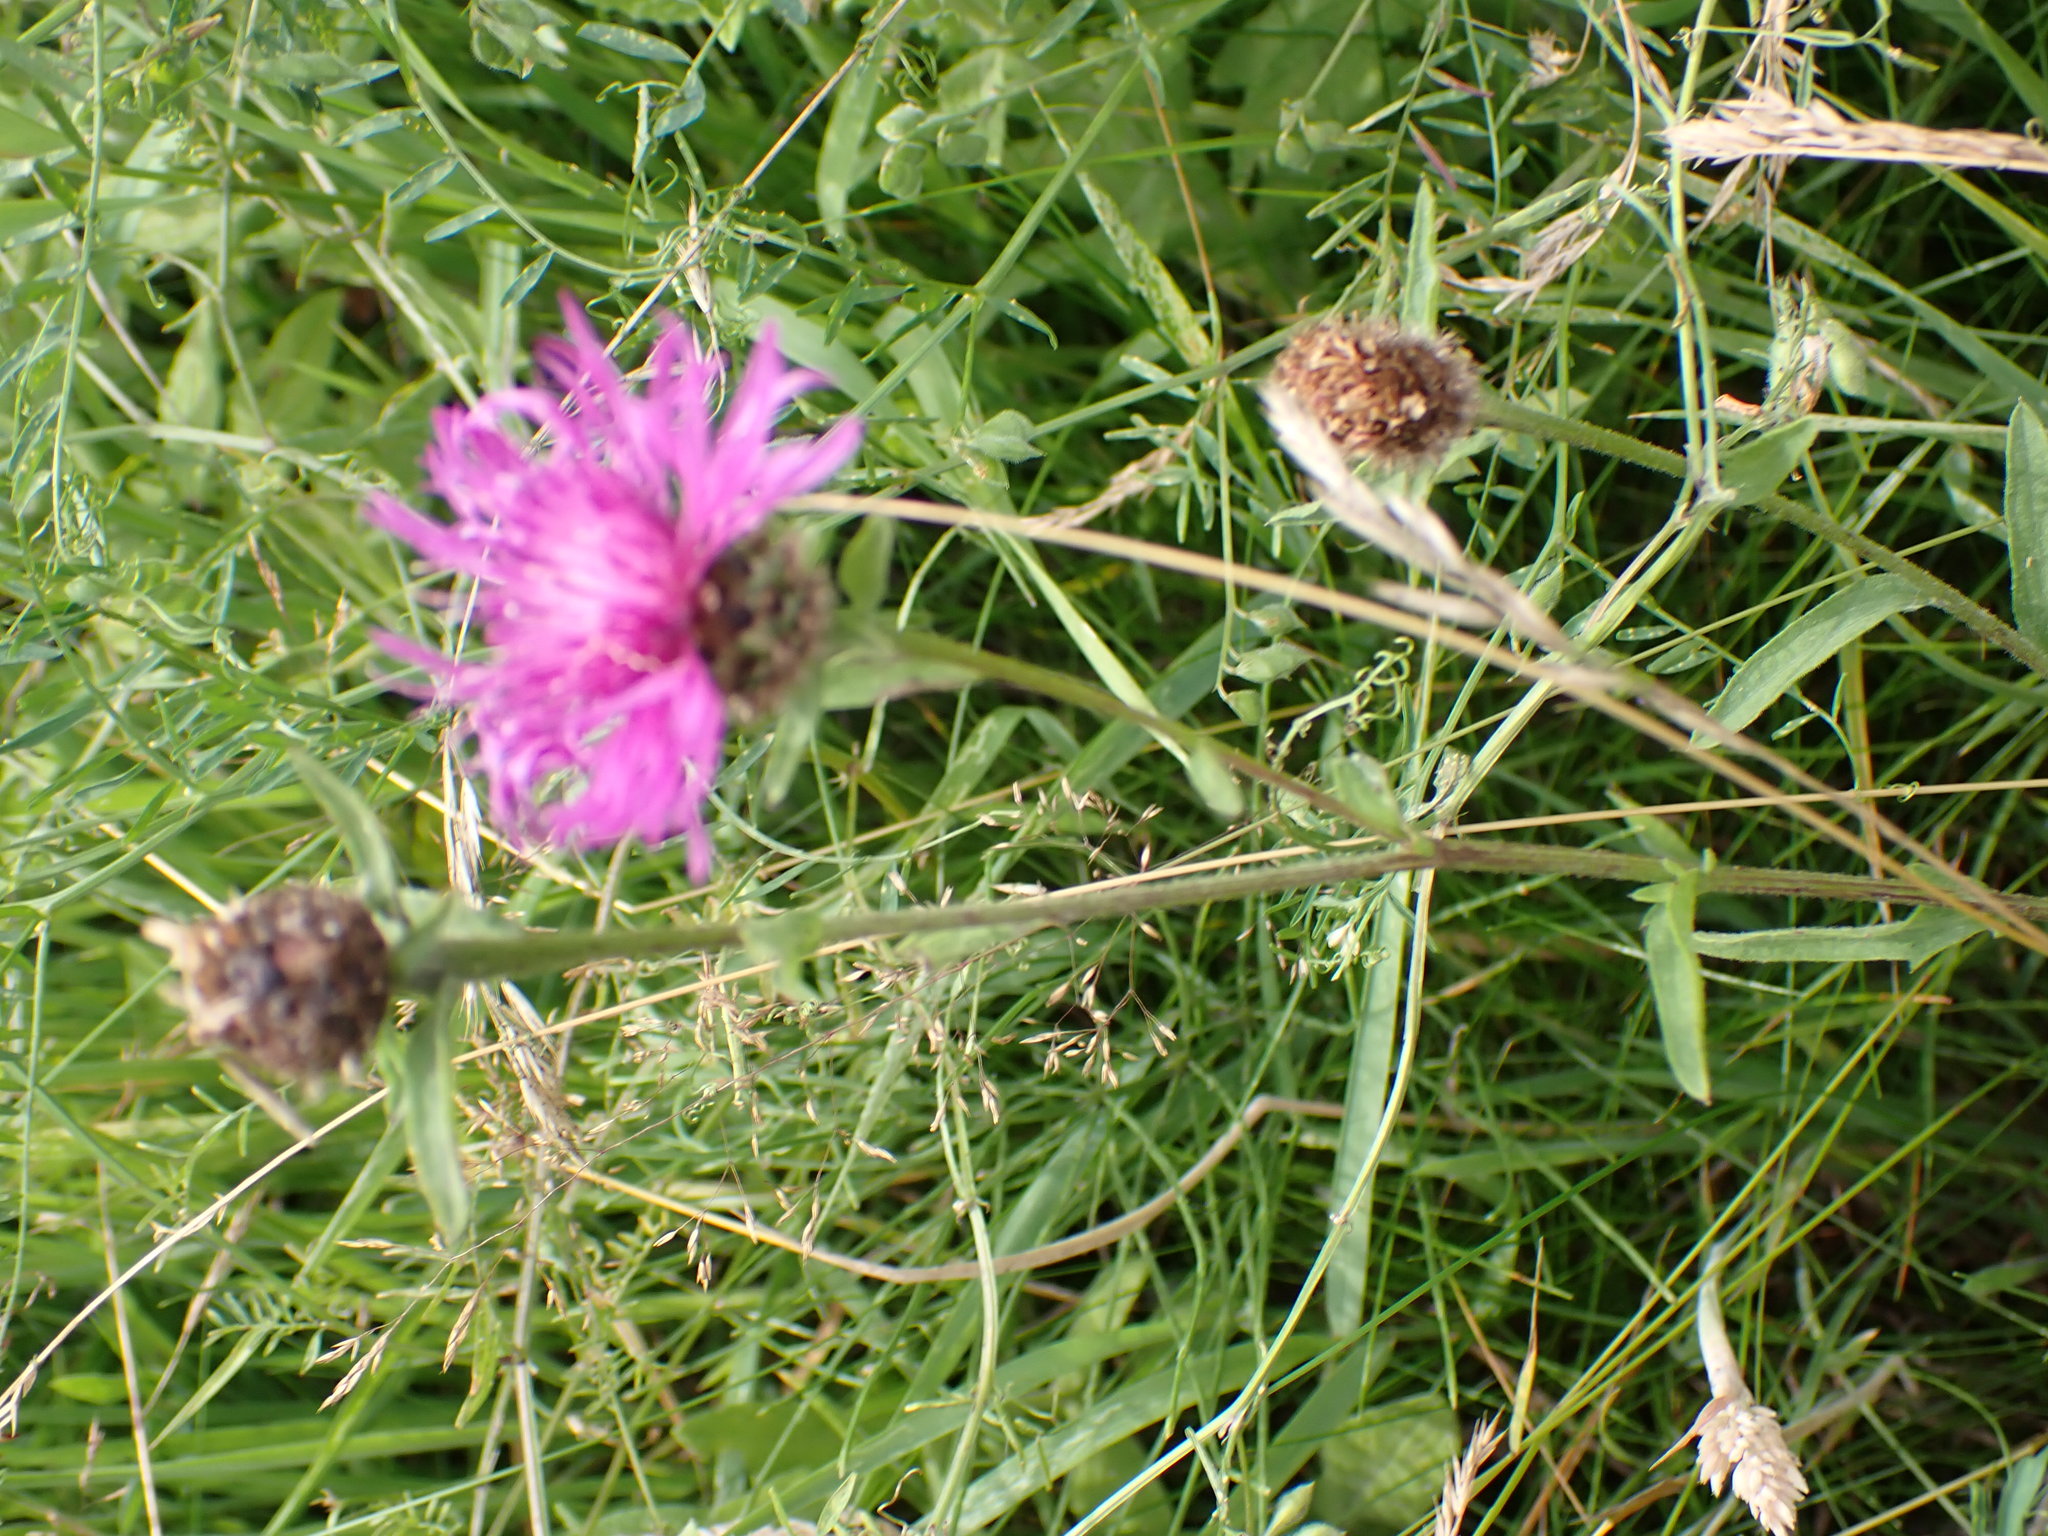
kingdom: Plantae
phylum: Tracheophyta
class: Magnoliopsida
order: Asterales
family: Asteraceae
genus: Centaurea
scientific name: Centaurea nigra
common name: Lesser knapweed
